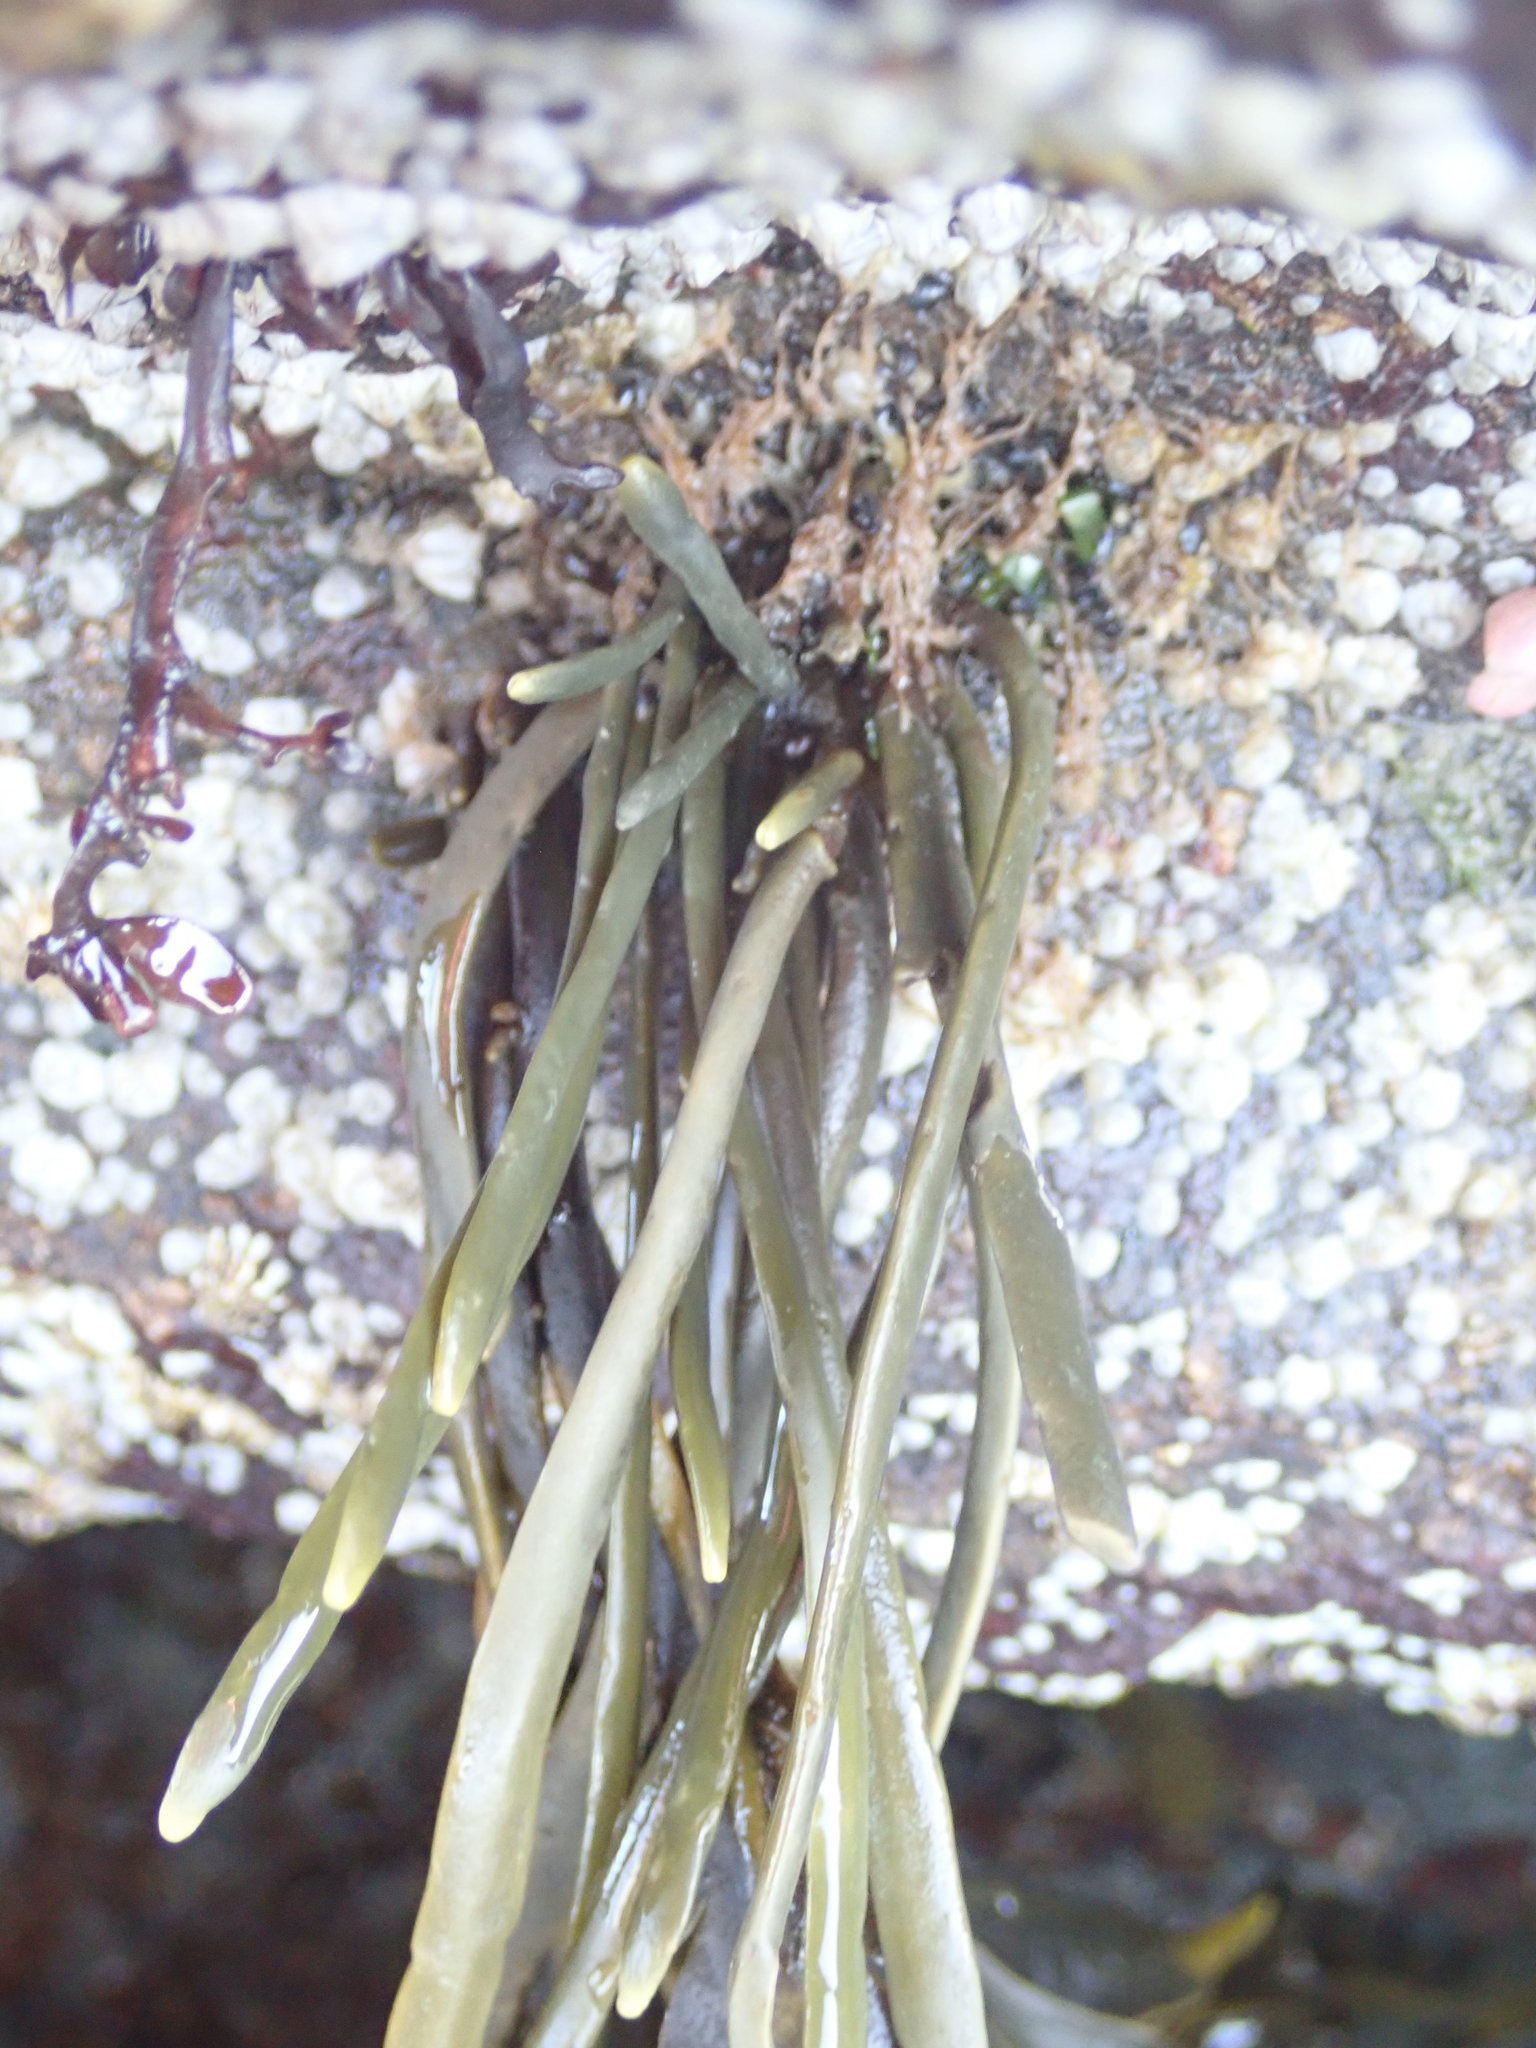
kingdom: Chromista
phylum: Ochrophyta
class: Phaeophyceae
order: Fucales
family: Fucaceae
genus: Ascophyllum
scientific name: Ascophyllum nodosum
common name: Knotted wrack
